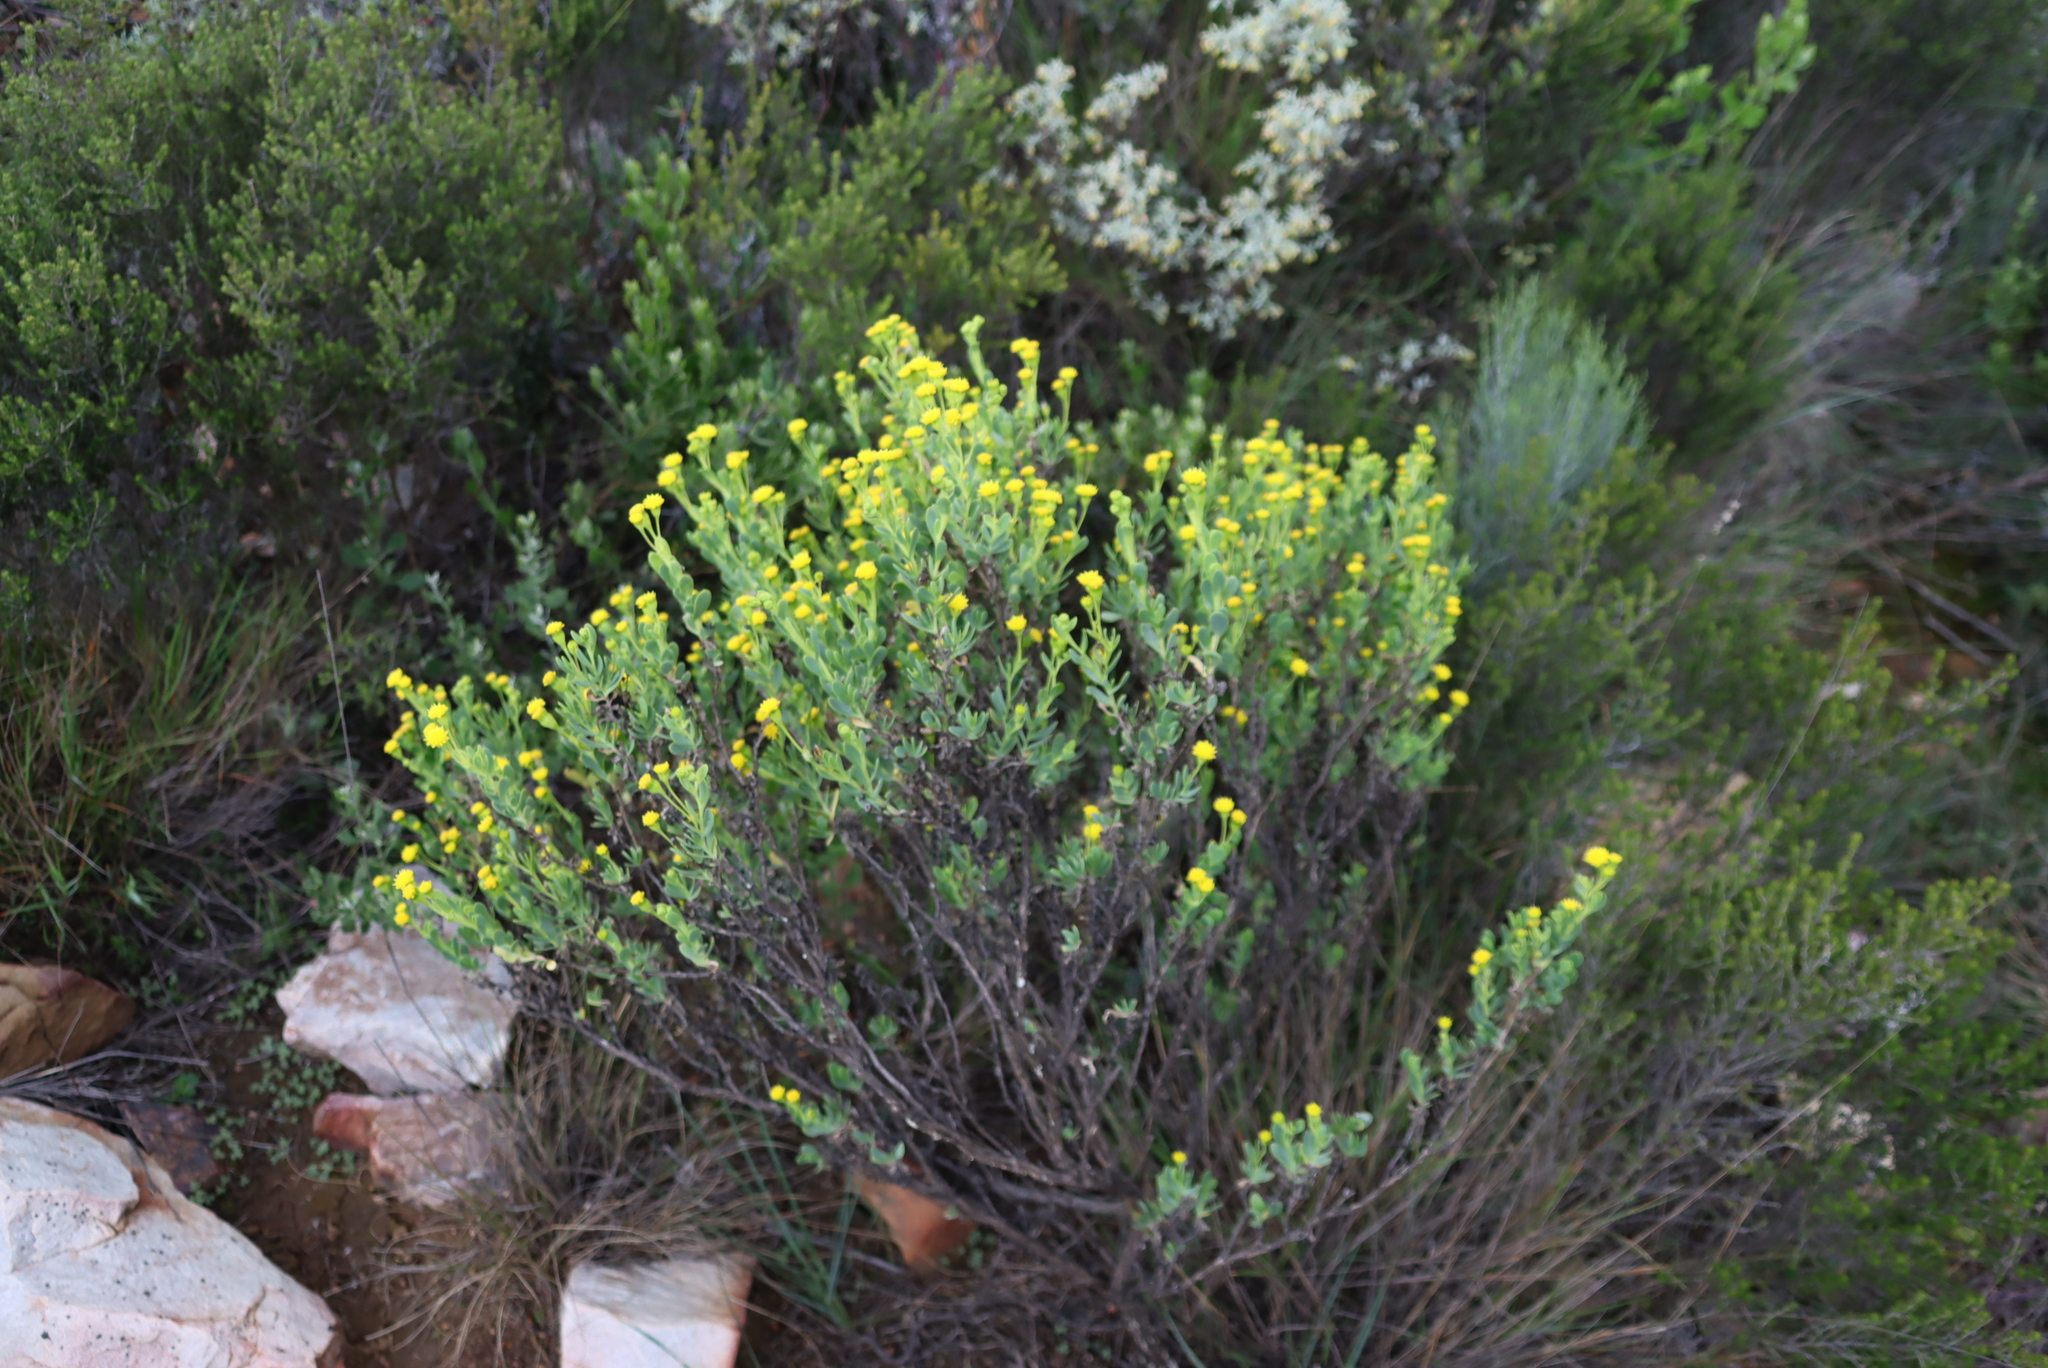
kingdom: Plantae
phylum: Tracheophyta
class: Magnoliopsida
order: Asterales
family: Asteraceae
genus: Hertia
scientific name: Hertia kraussii
